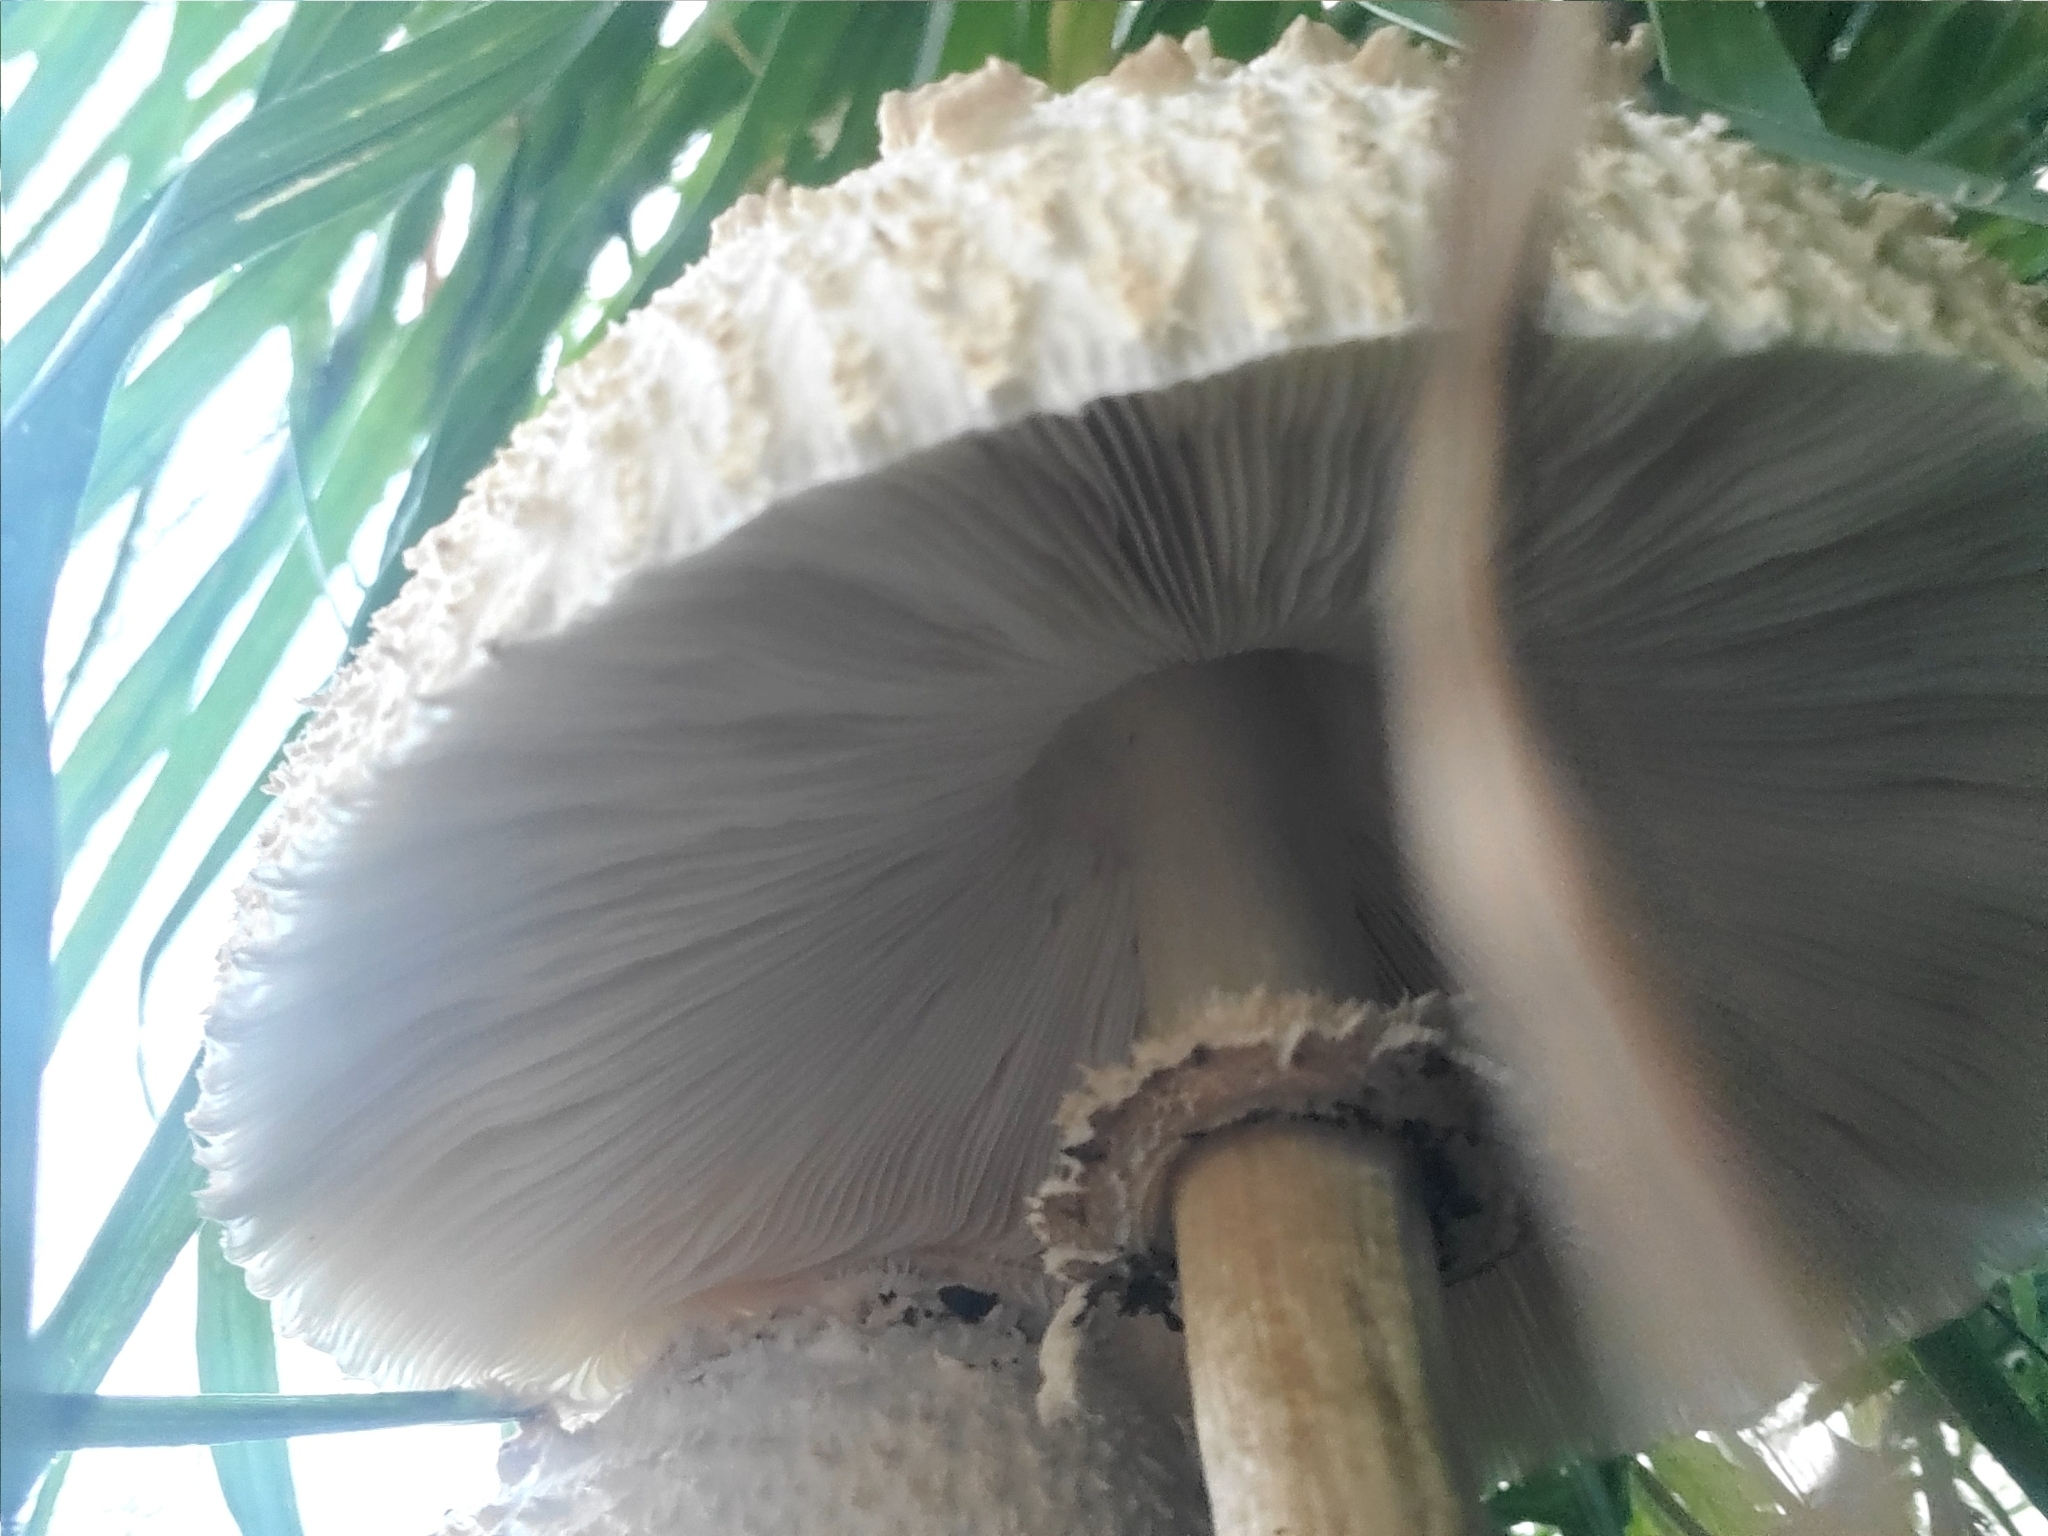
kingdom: Fungi
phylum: Basidiomycota
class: Agaricomycetes
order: Agaricales
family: Agaricaceae
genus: Chlorophyllum
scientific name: Chlorophyllum molybdites
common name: False parasol
